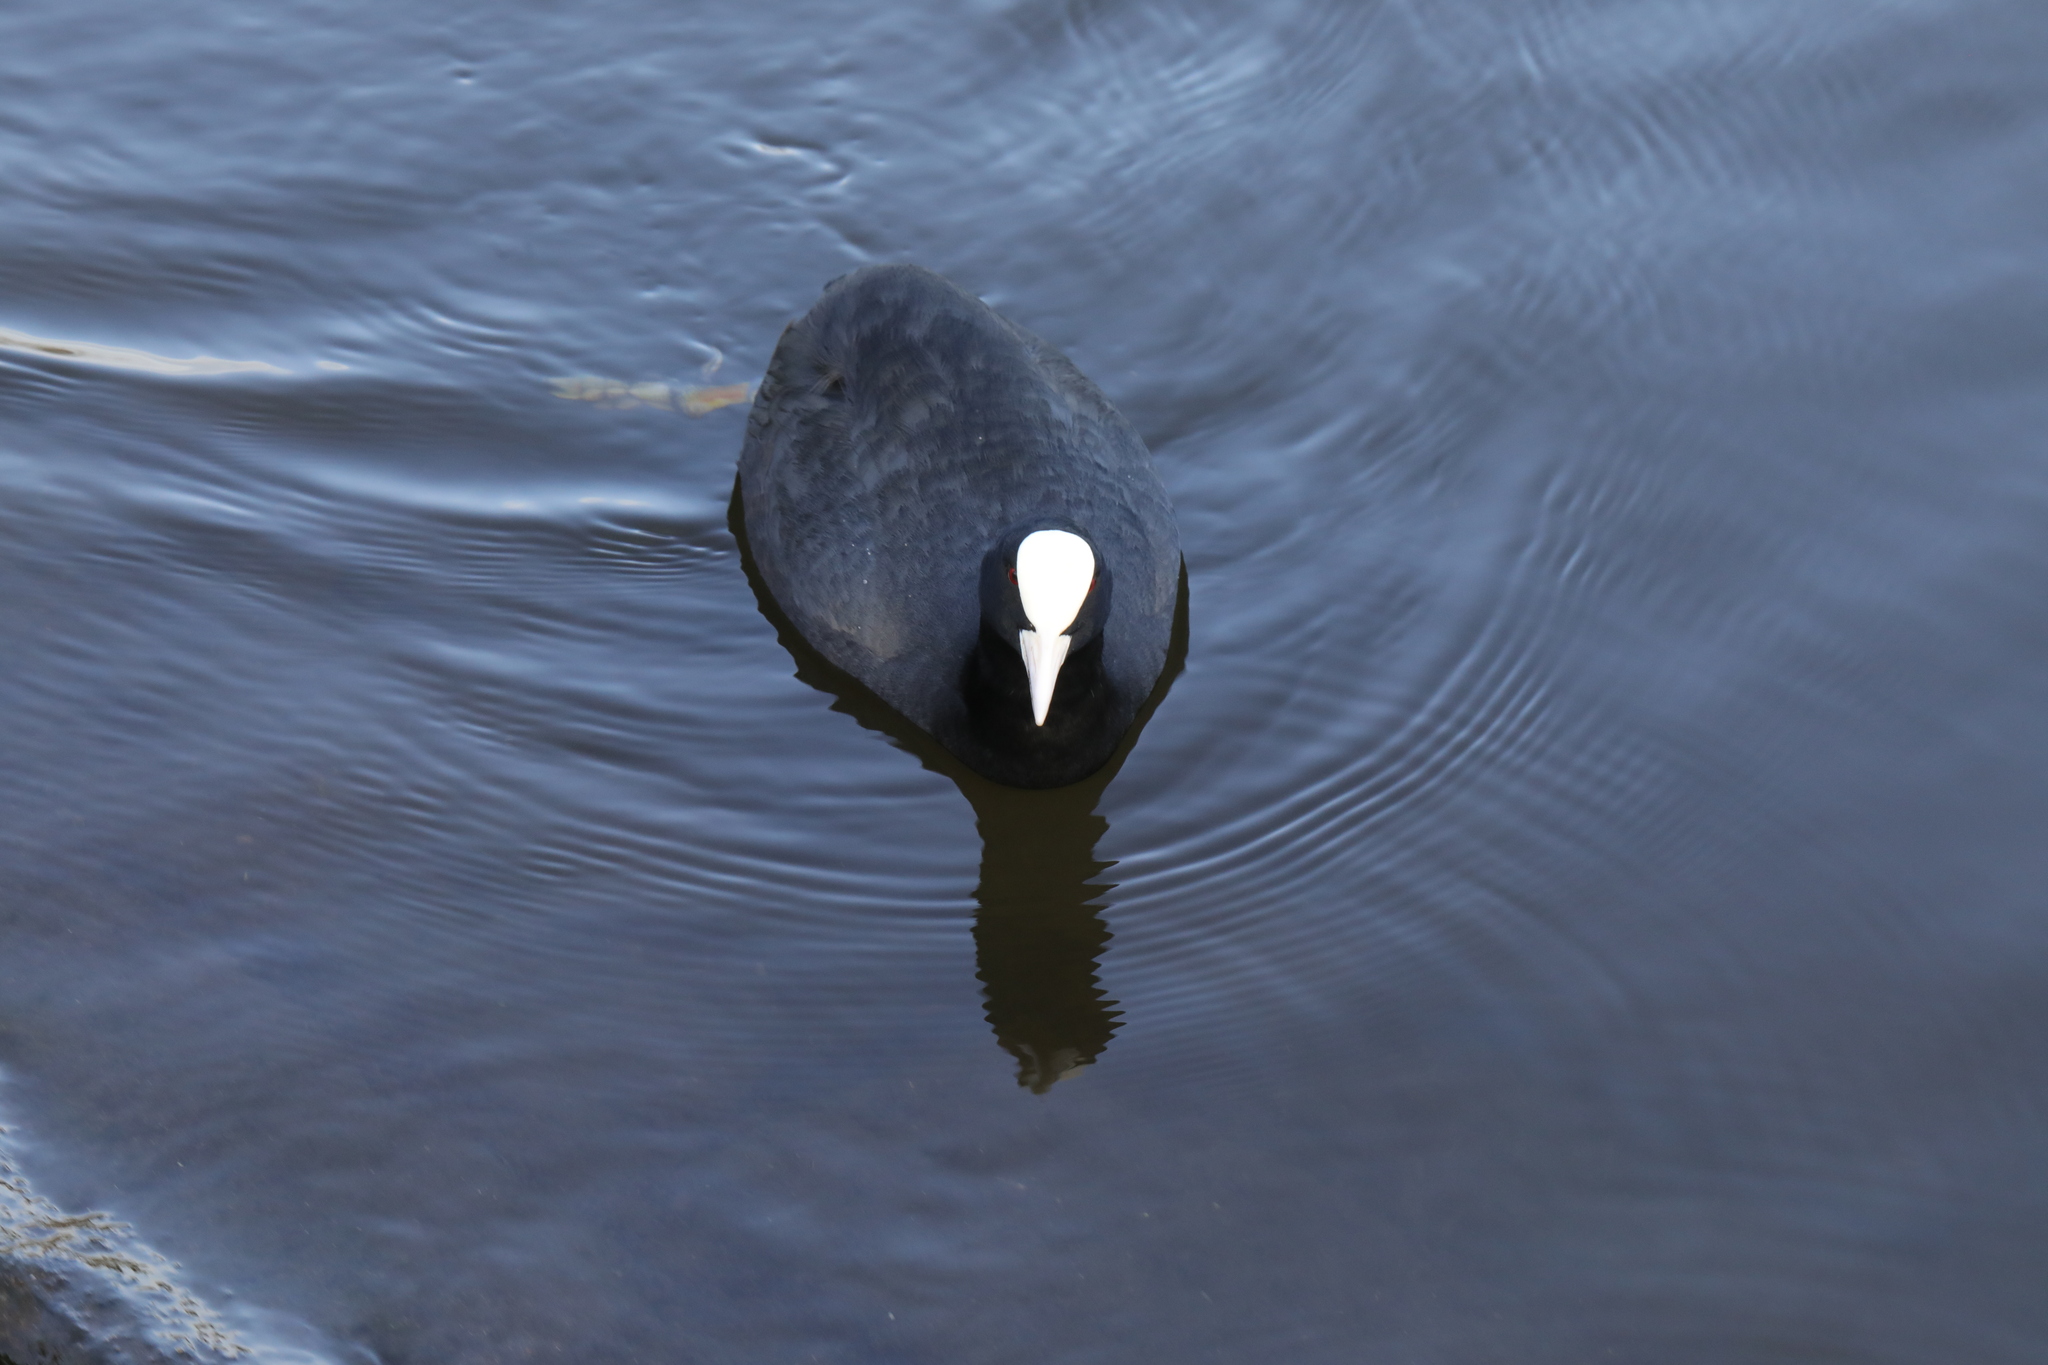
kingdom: Animalia
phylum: Chordata
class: Aves
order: Gruiformes
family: Rallidae
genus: Fulica
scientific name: Fulica atra
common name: Eurasian coot
